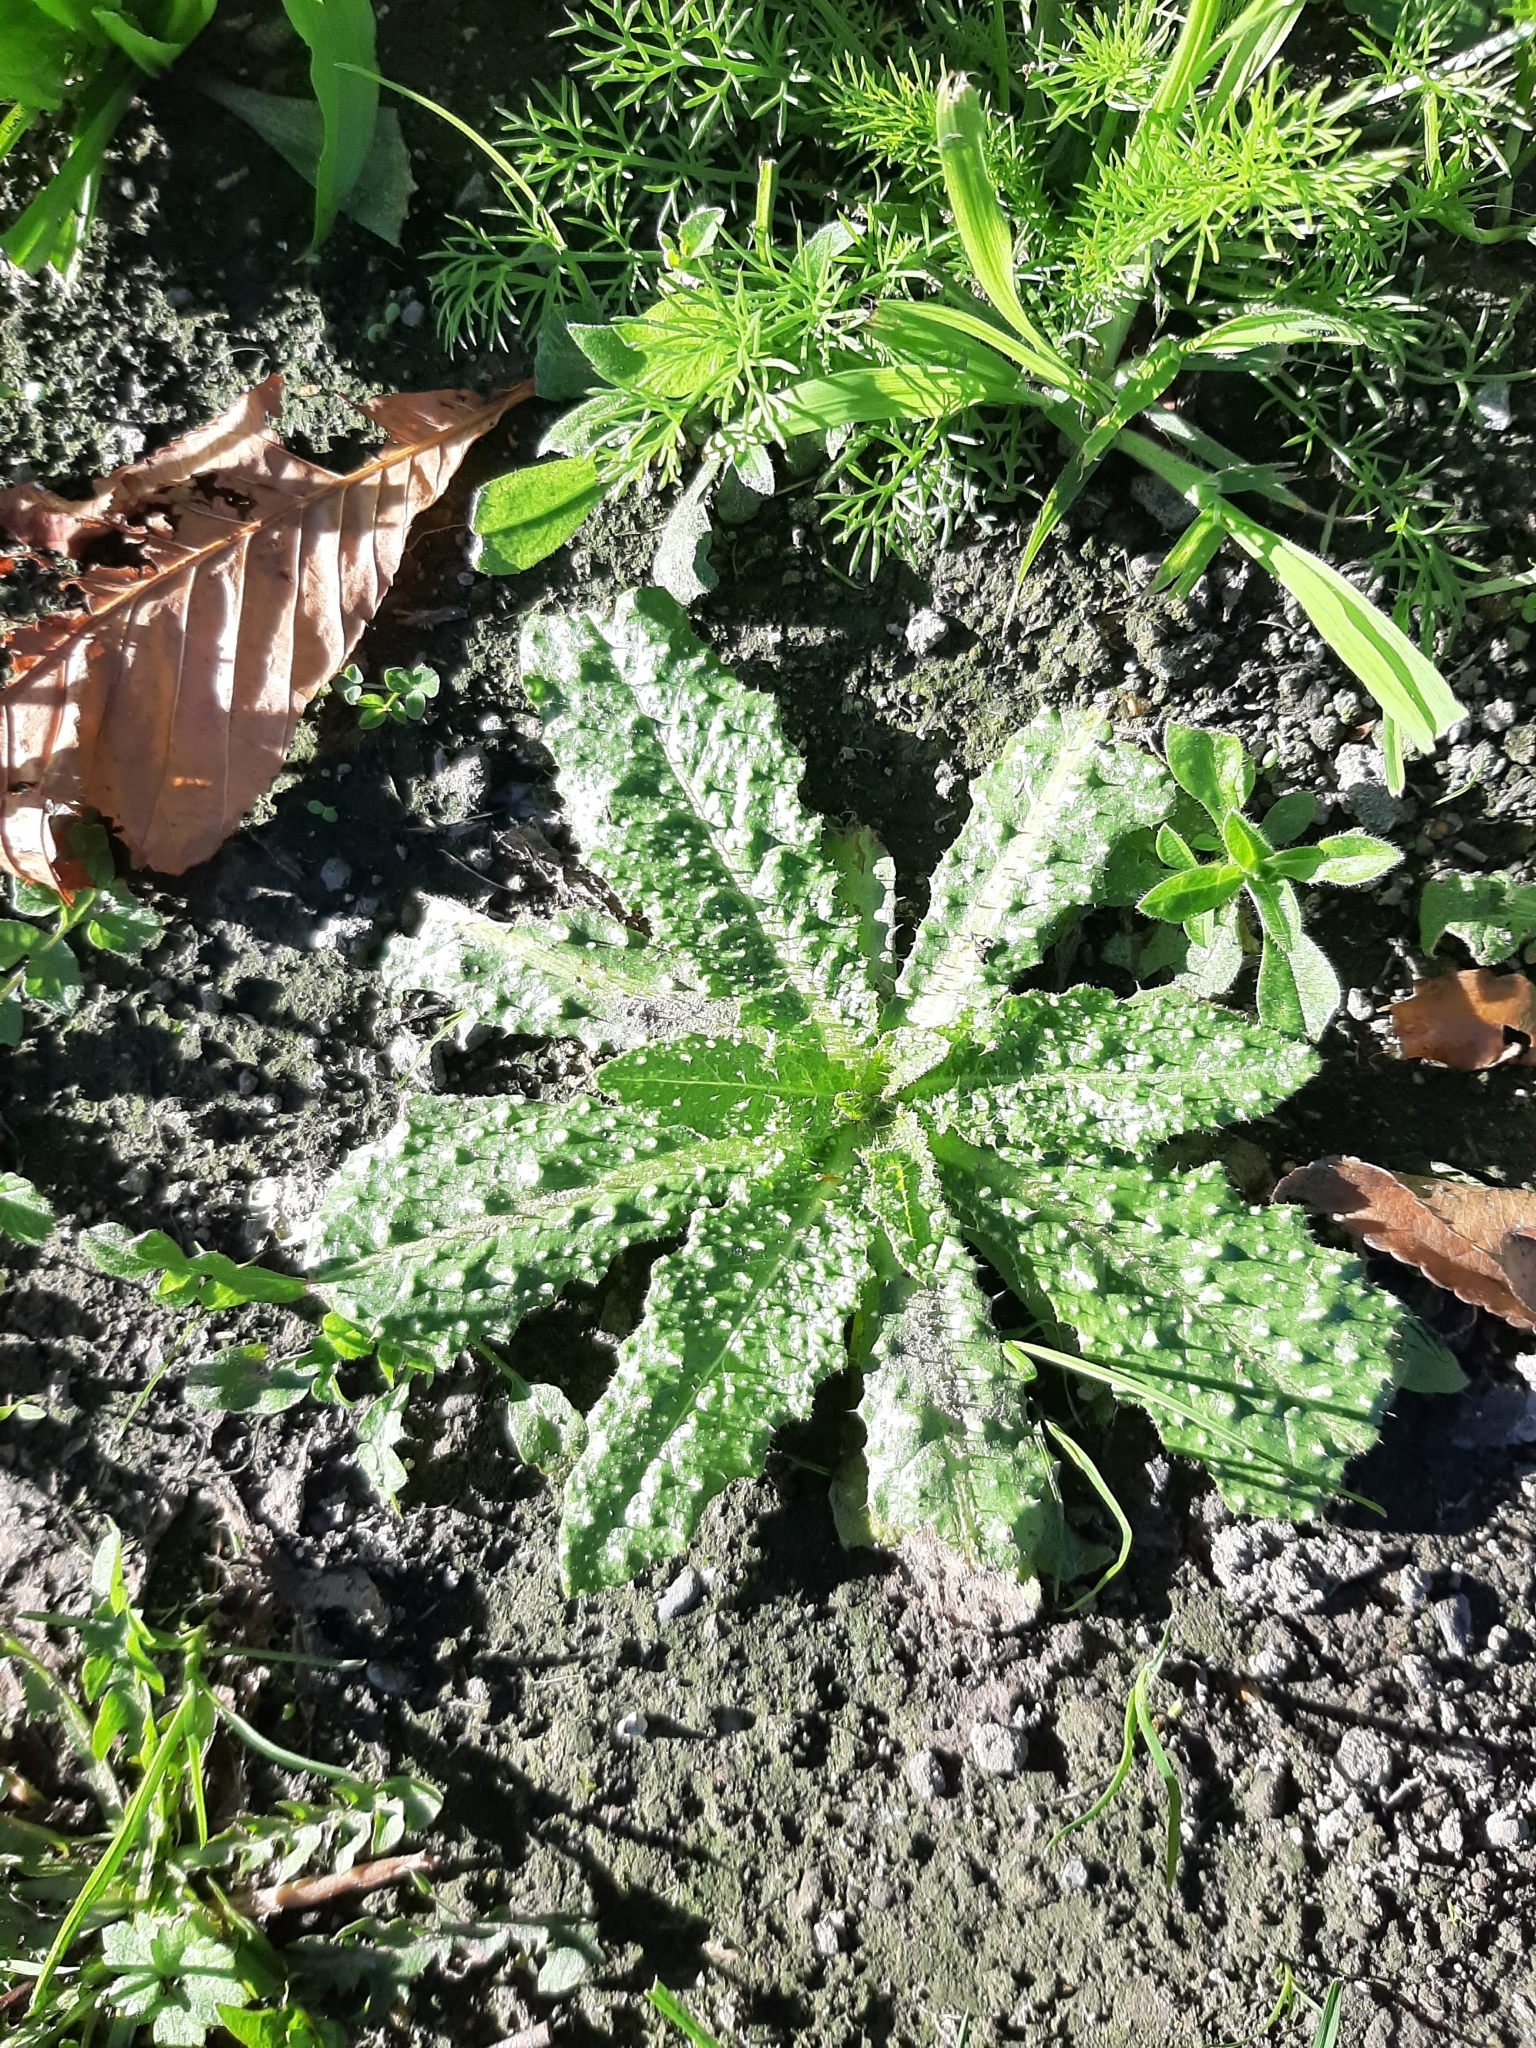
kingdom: Plantae
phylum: Tracheophyta
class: Magnoliopsida
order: Asterales
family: Asteraceae
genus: Helminthotheca
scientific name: Helminthotheca echioides
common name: Ox-tongue
